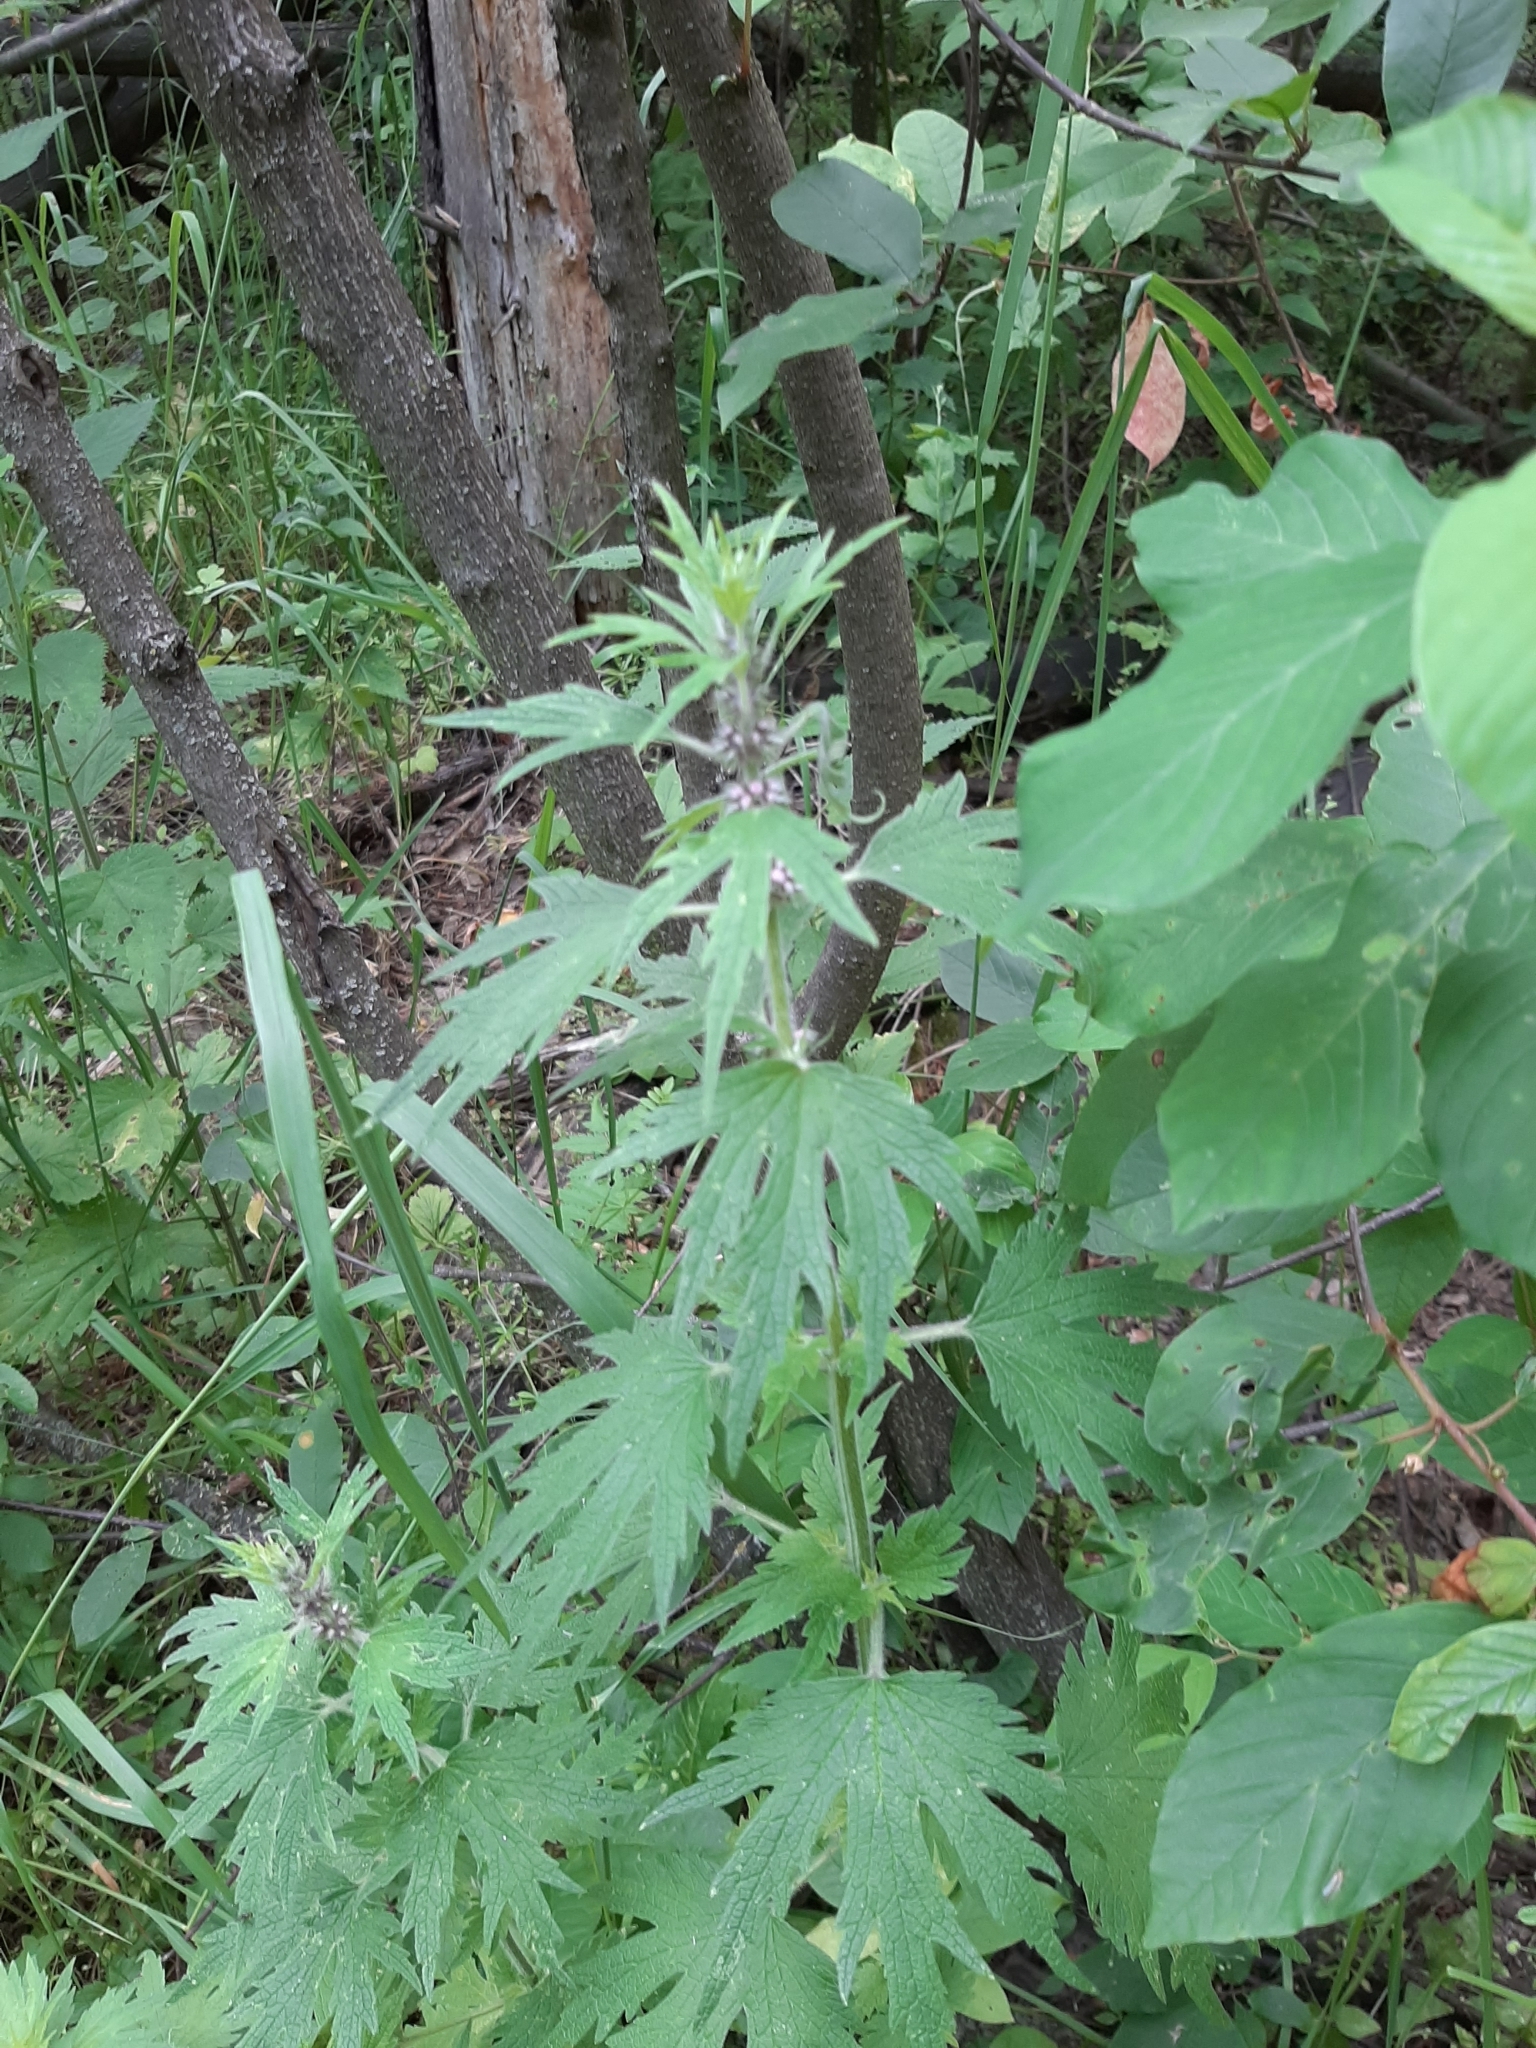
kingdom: Plantae
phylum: Tracheophyta
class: Magnoliopsida
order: Lamiales
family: Lamiaceae
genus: Leonurus
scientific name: Leonurus quinquelobatus
